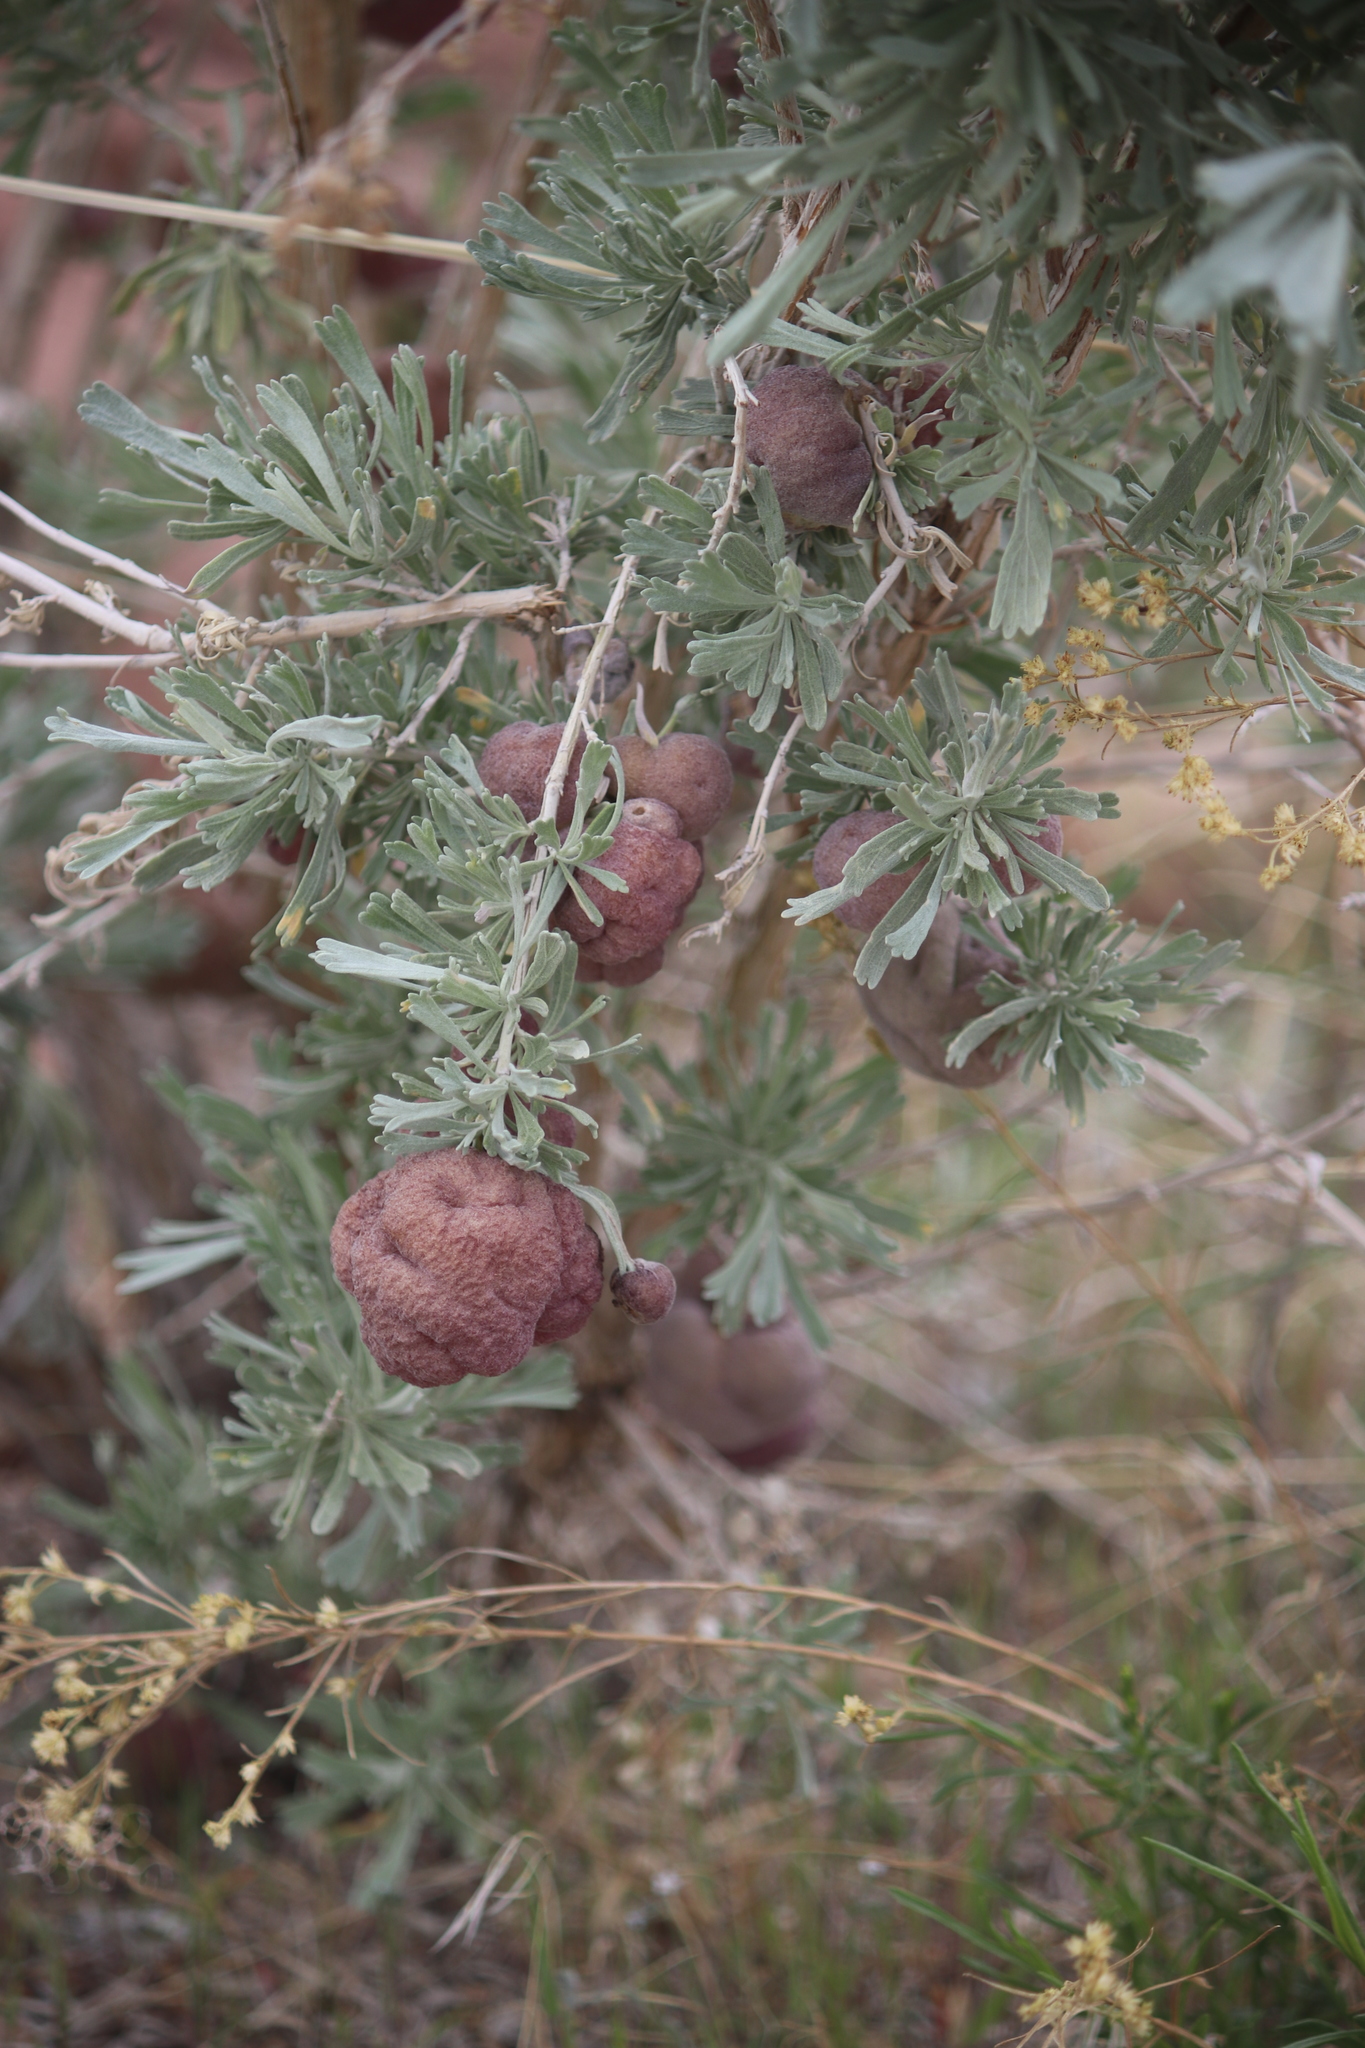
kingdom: Plantae
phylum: Tracheophyta
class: Magnoliopsida
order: Asterales
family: Asteraceae
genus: Artemisia
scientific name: Artemisia tridentata
